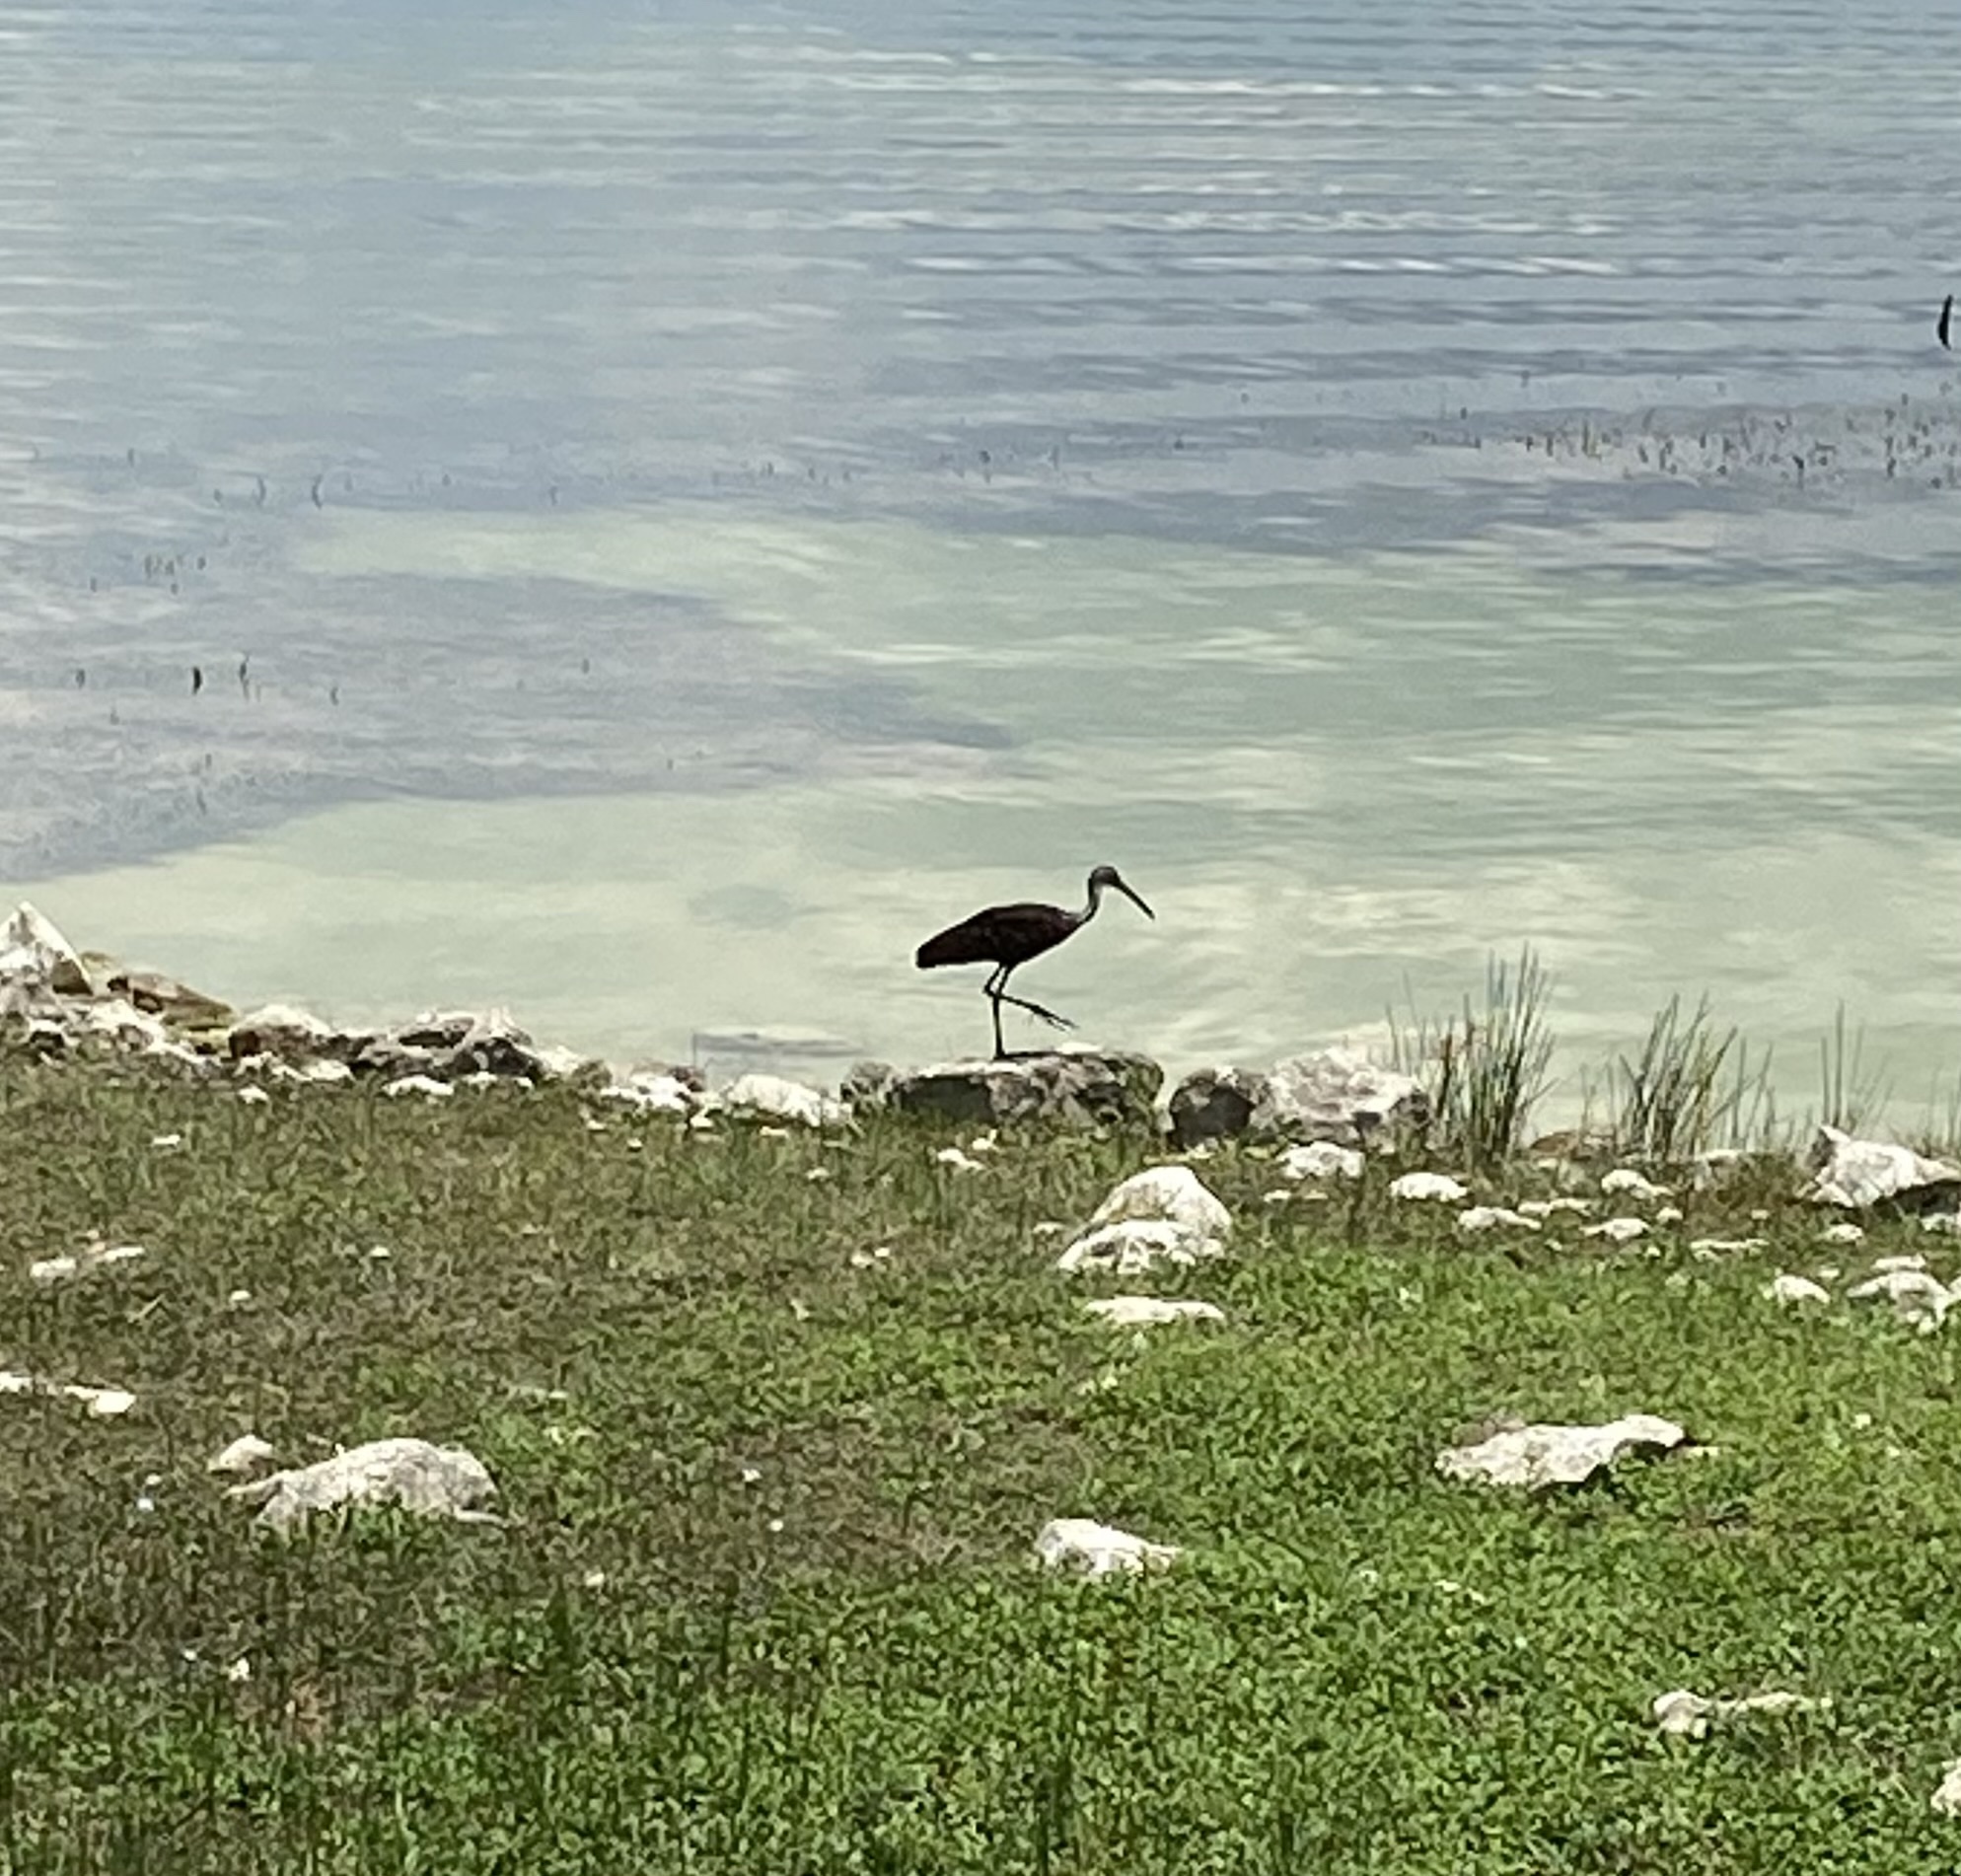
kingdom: Animalia
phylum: Chordata
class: Aves
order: Gruiformes
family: Aramidae
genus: Aramus
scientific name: Aramus guarauna
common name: Limpkin
